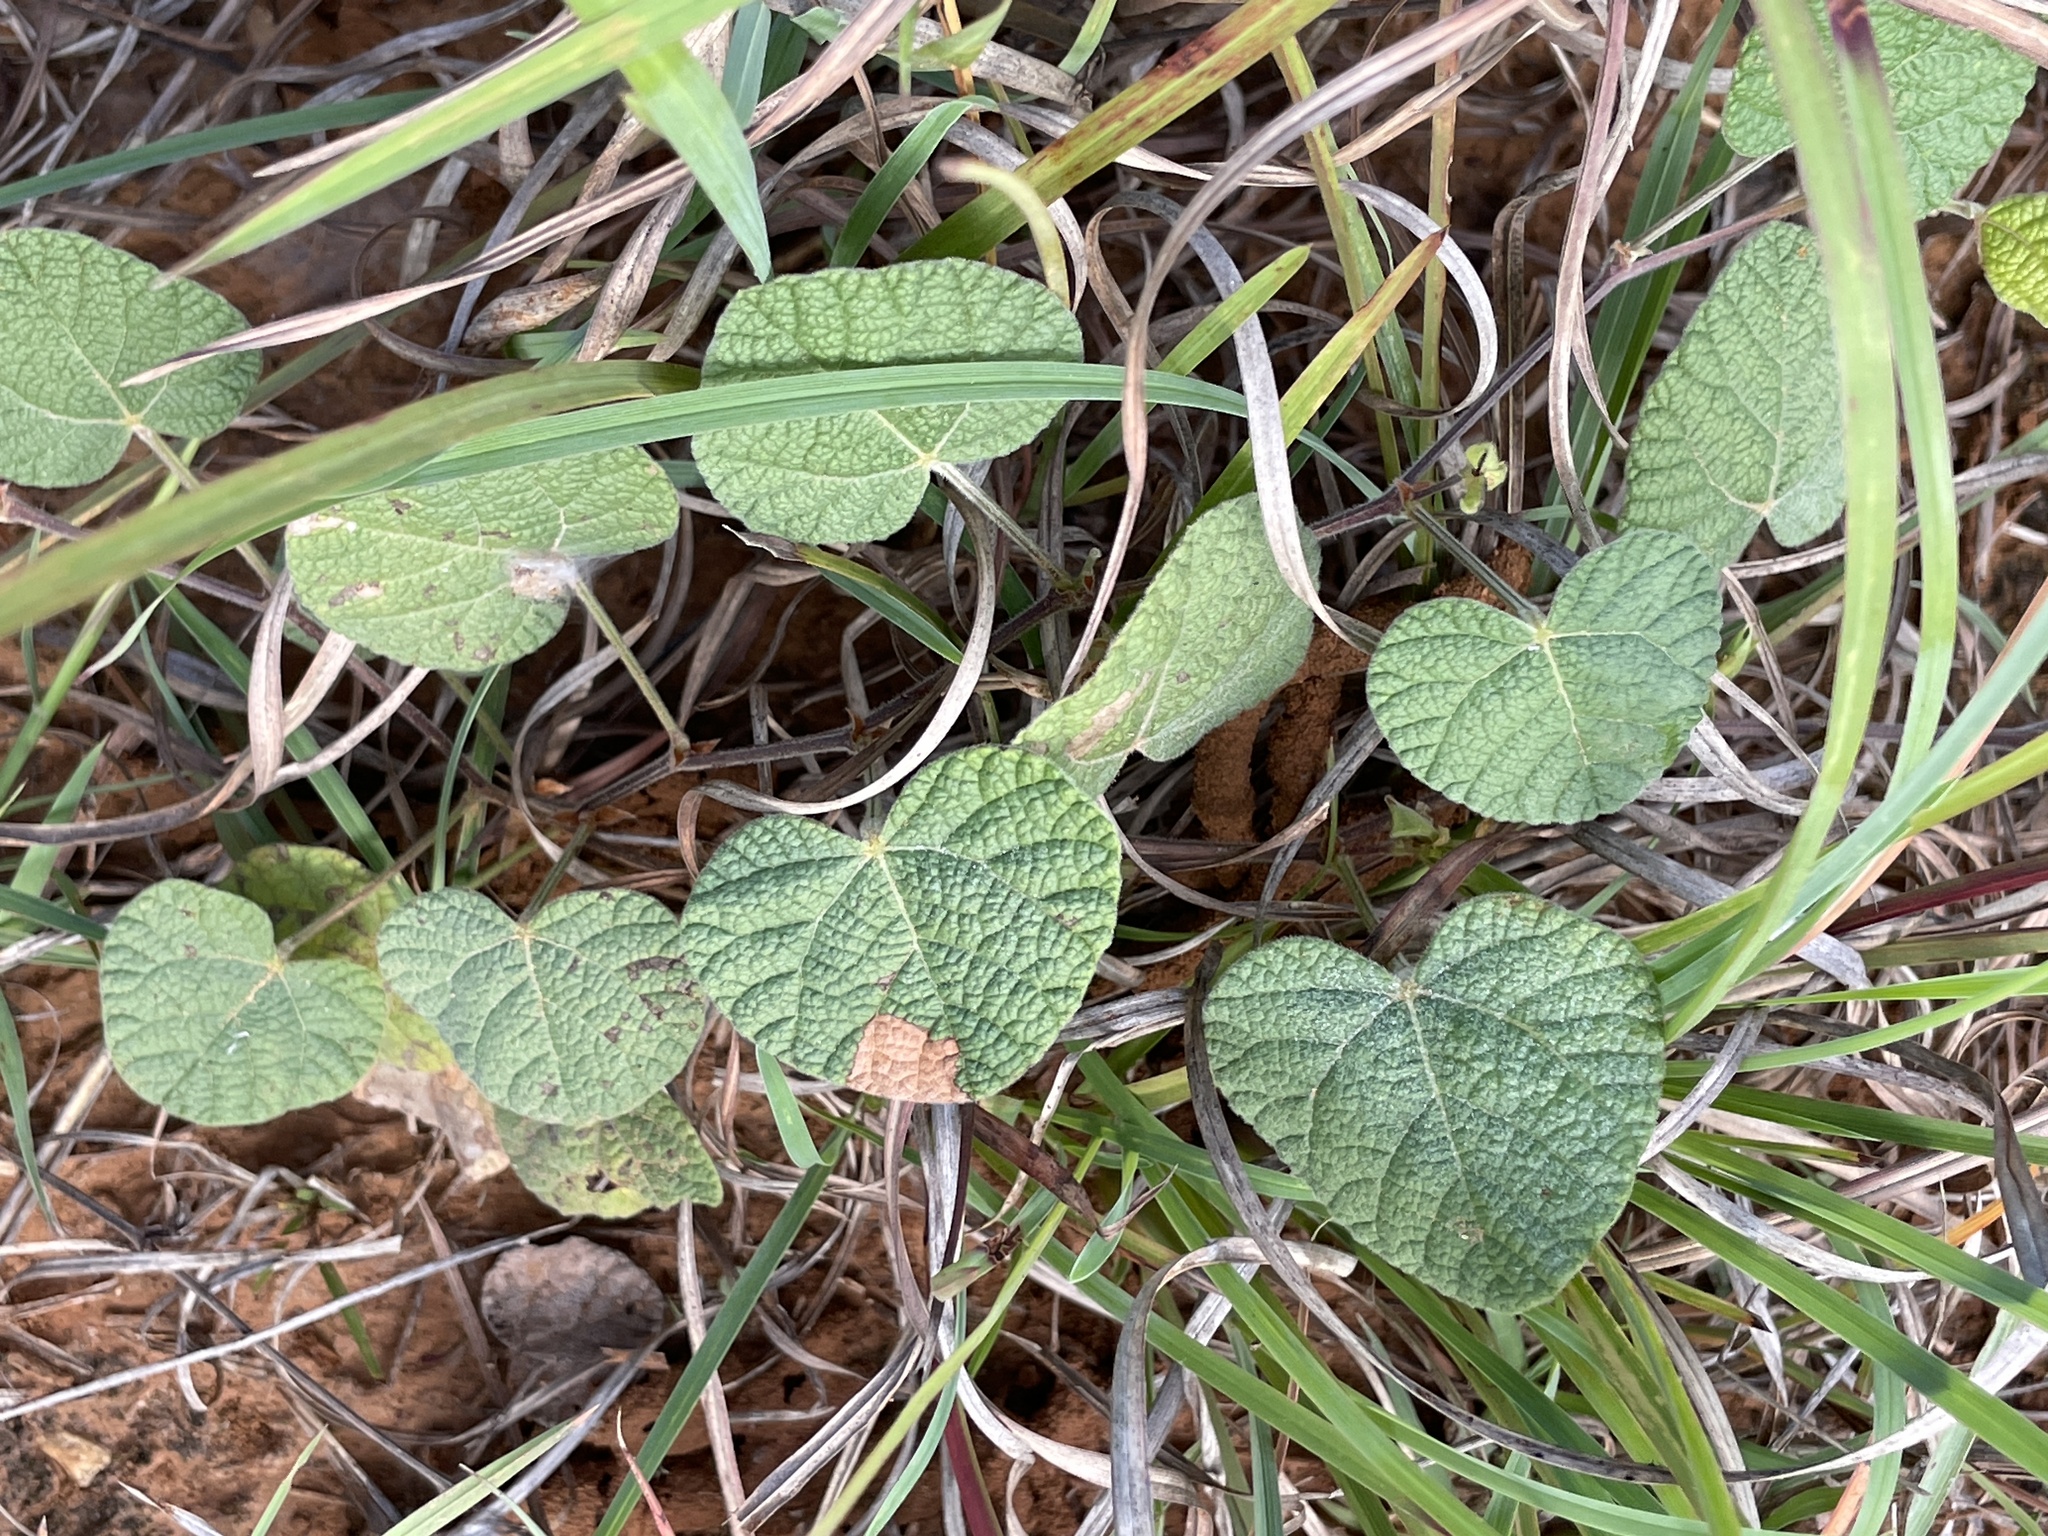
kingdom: Plantae
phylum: Tracheophyta
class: Magnoliopsida
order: Fabales
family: Fabaceae
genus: Rhynchosia
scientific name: Rhynchosia americana
